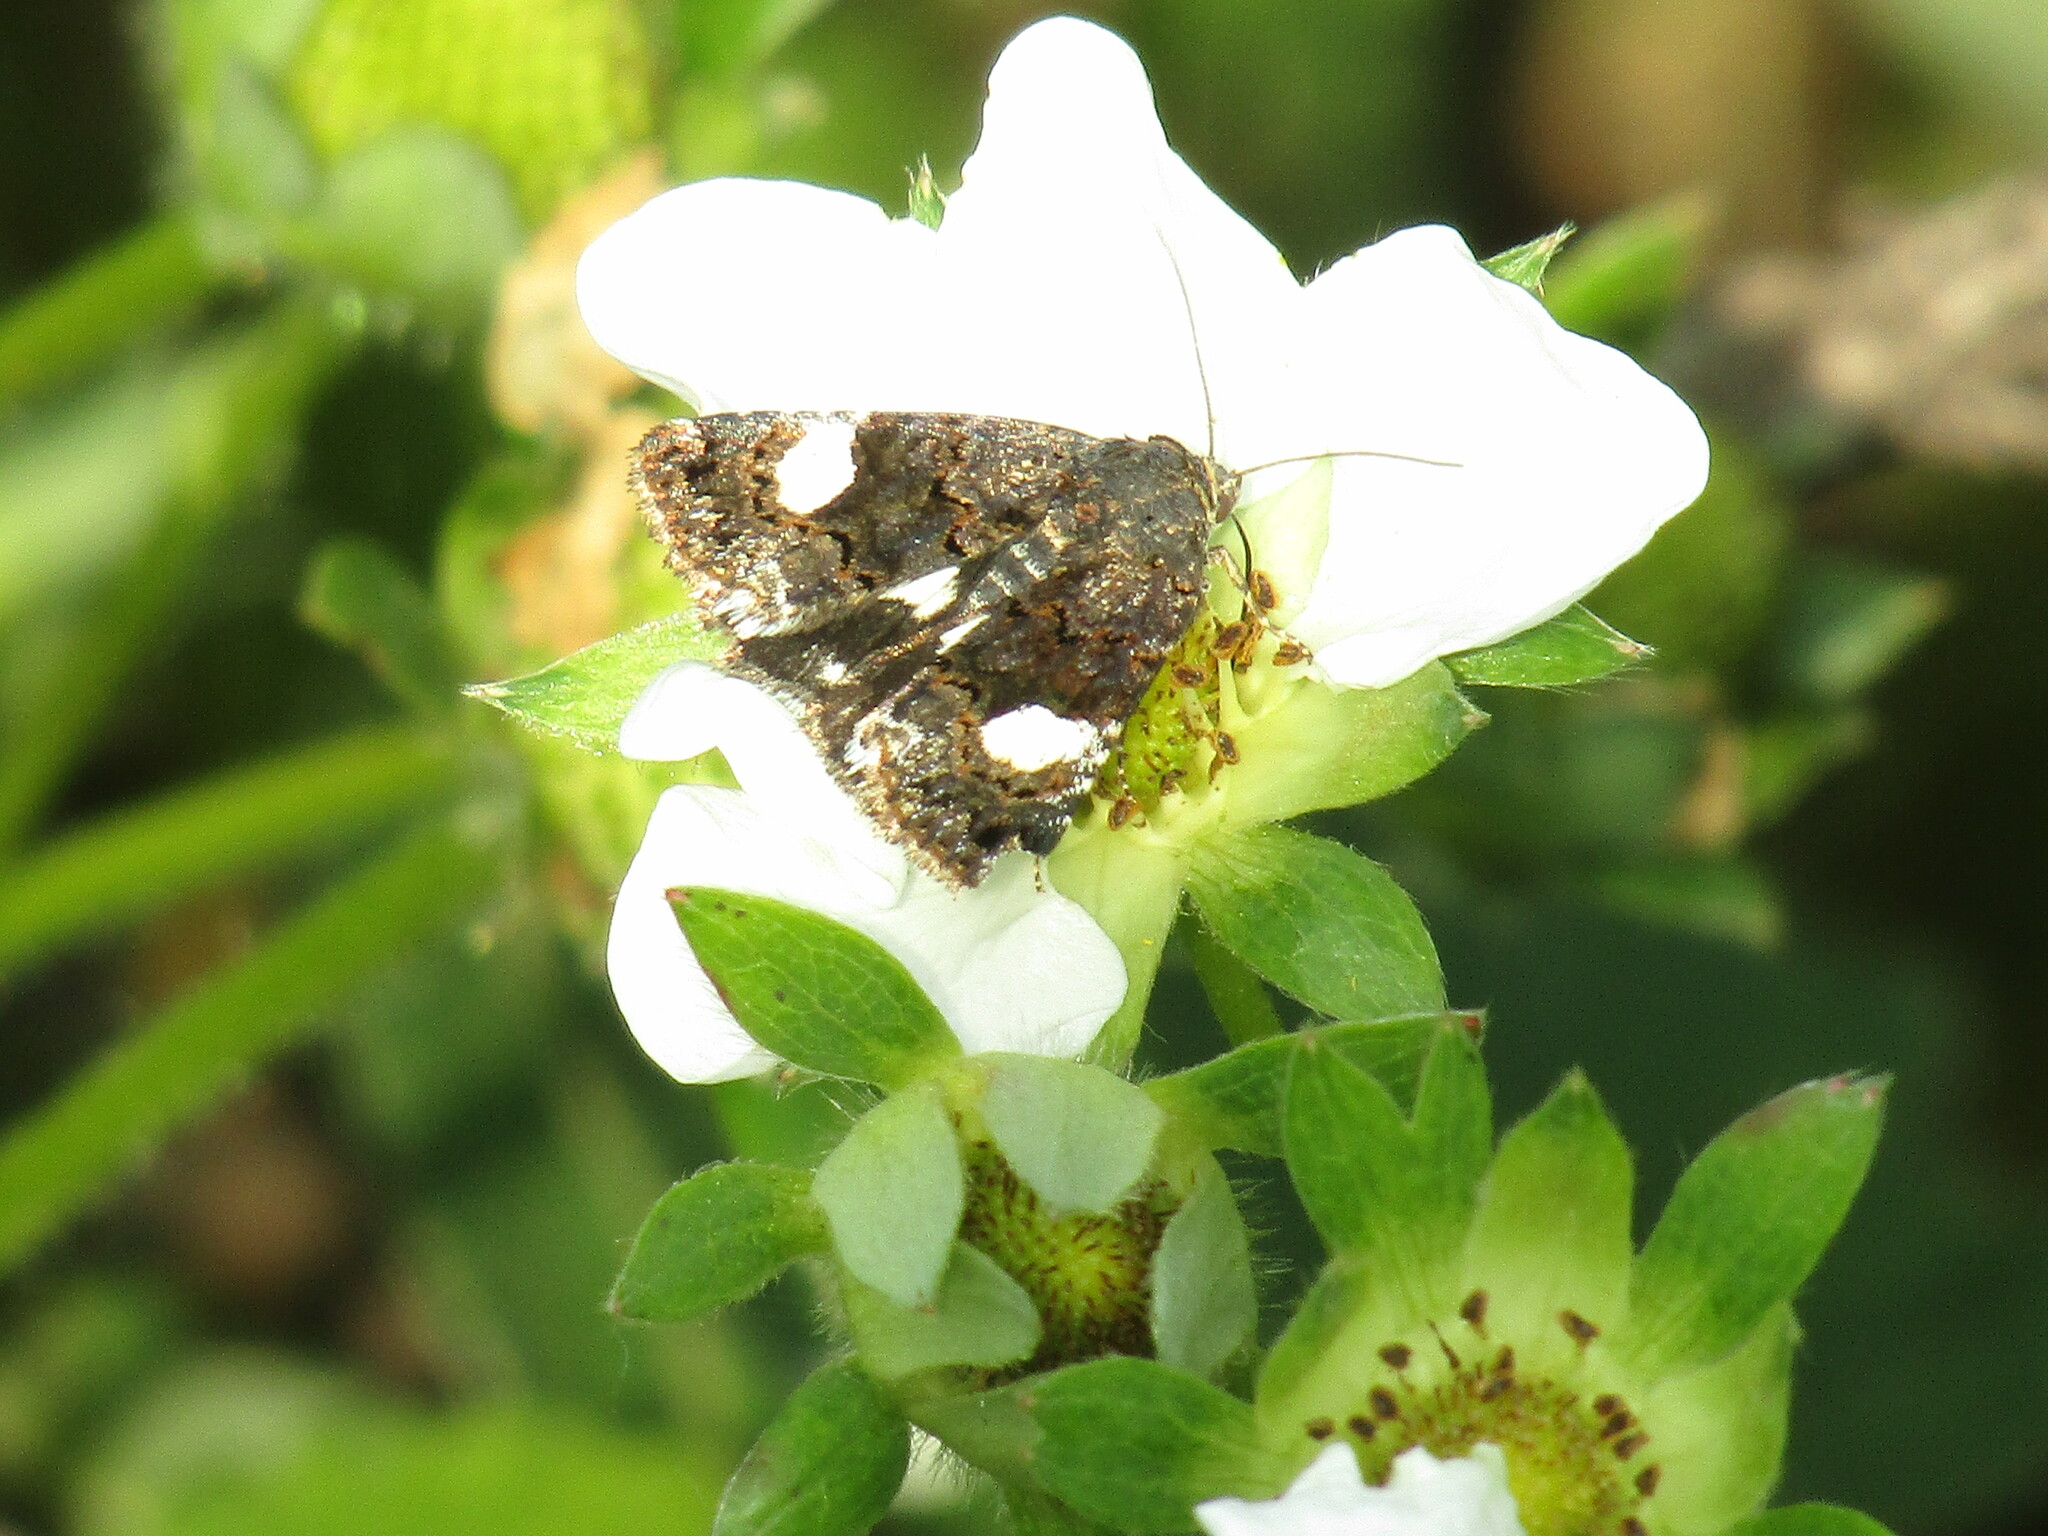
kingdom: Animalia
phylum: Arthropoda
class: Insecta
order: Lepidoptera
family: Erebidae
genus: Tyta
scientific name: Tyta luctuosa
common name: Four-spotted
